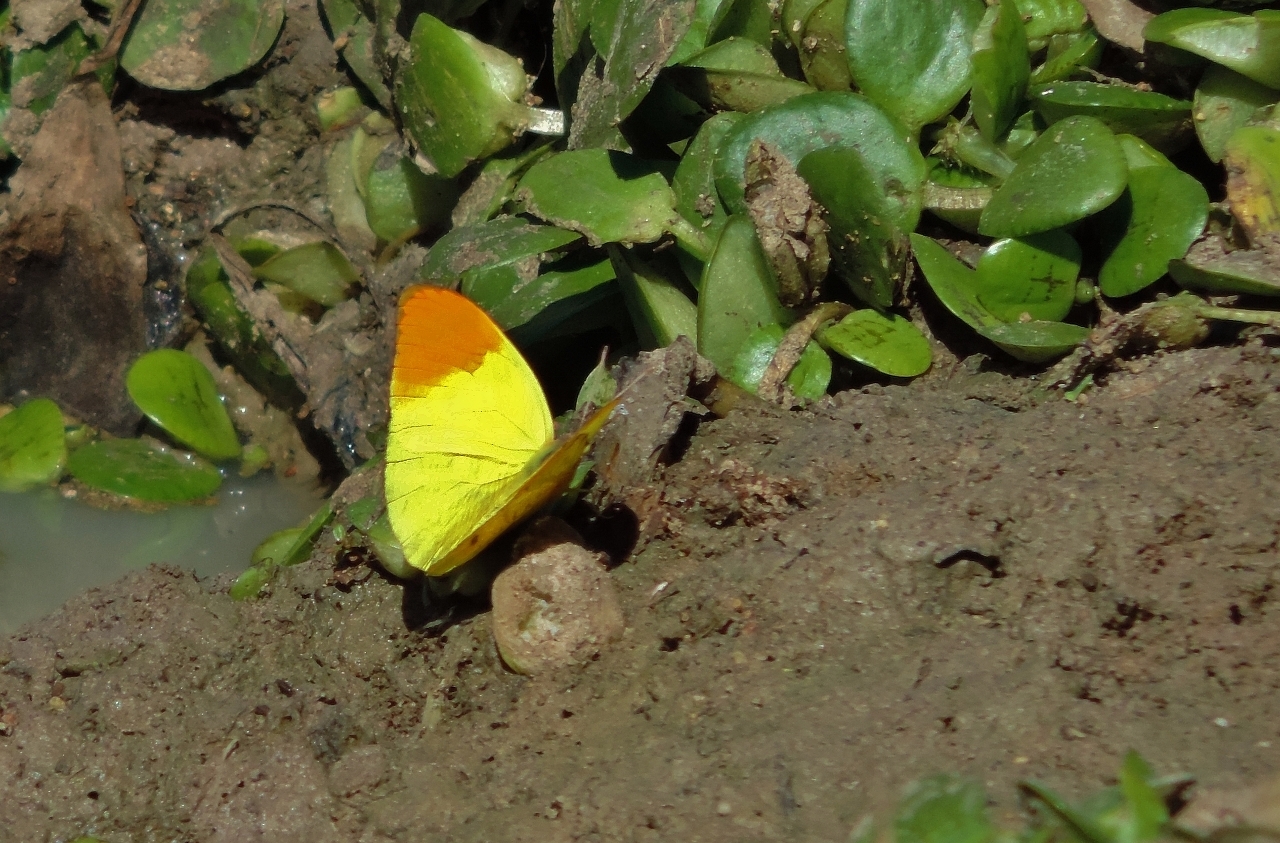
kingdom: Animalia
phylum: Arthropoda
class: Insecta
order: Lepidoptera
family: Pieridae
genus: Eronia
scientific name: Eronia leda
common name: Autumn leaf vagrant
